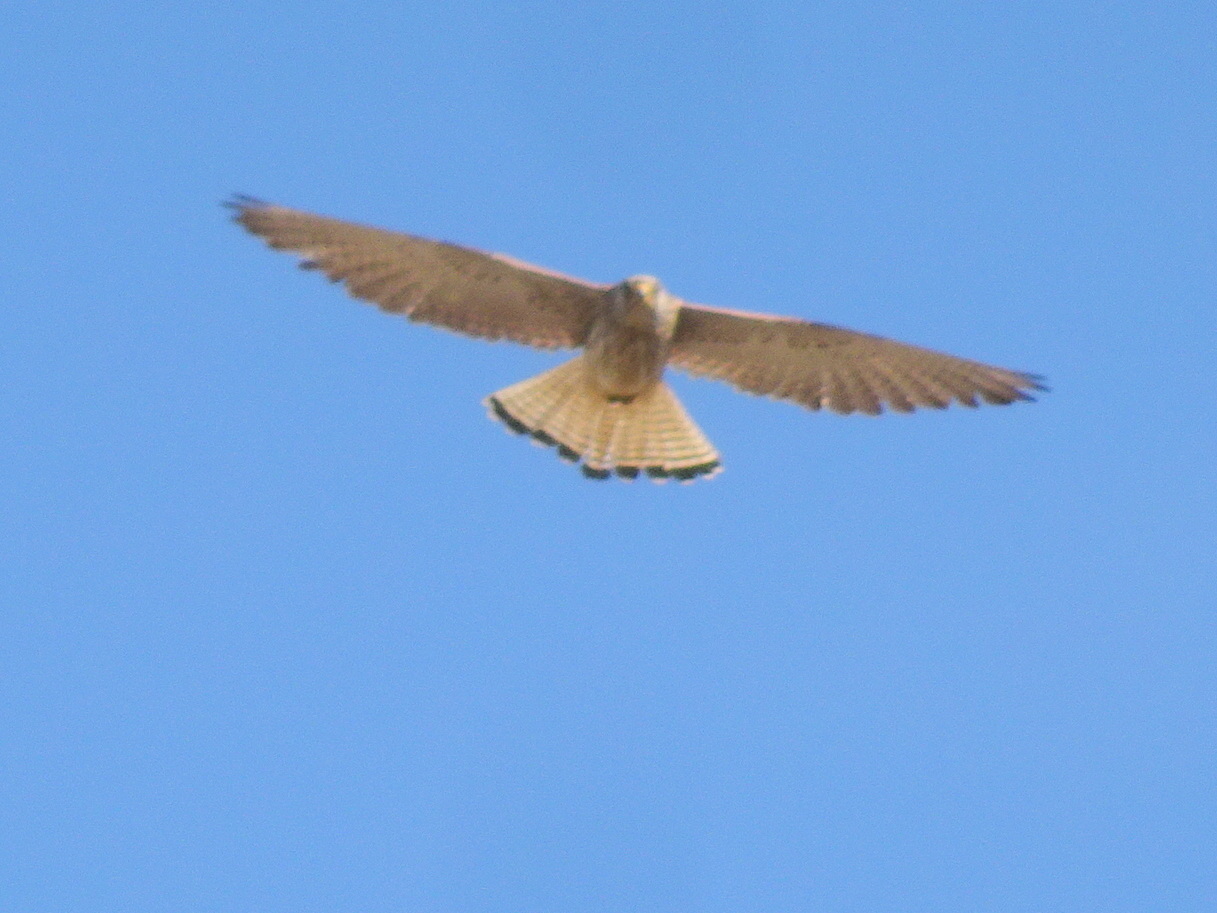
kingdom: Animalia
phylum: Chordata
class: Aves
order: Falconiformes
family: Falconidae
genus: Falco
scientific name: Falco naumanni
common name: Lesser kestrel
